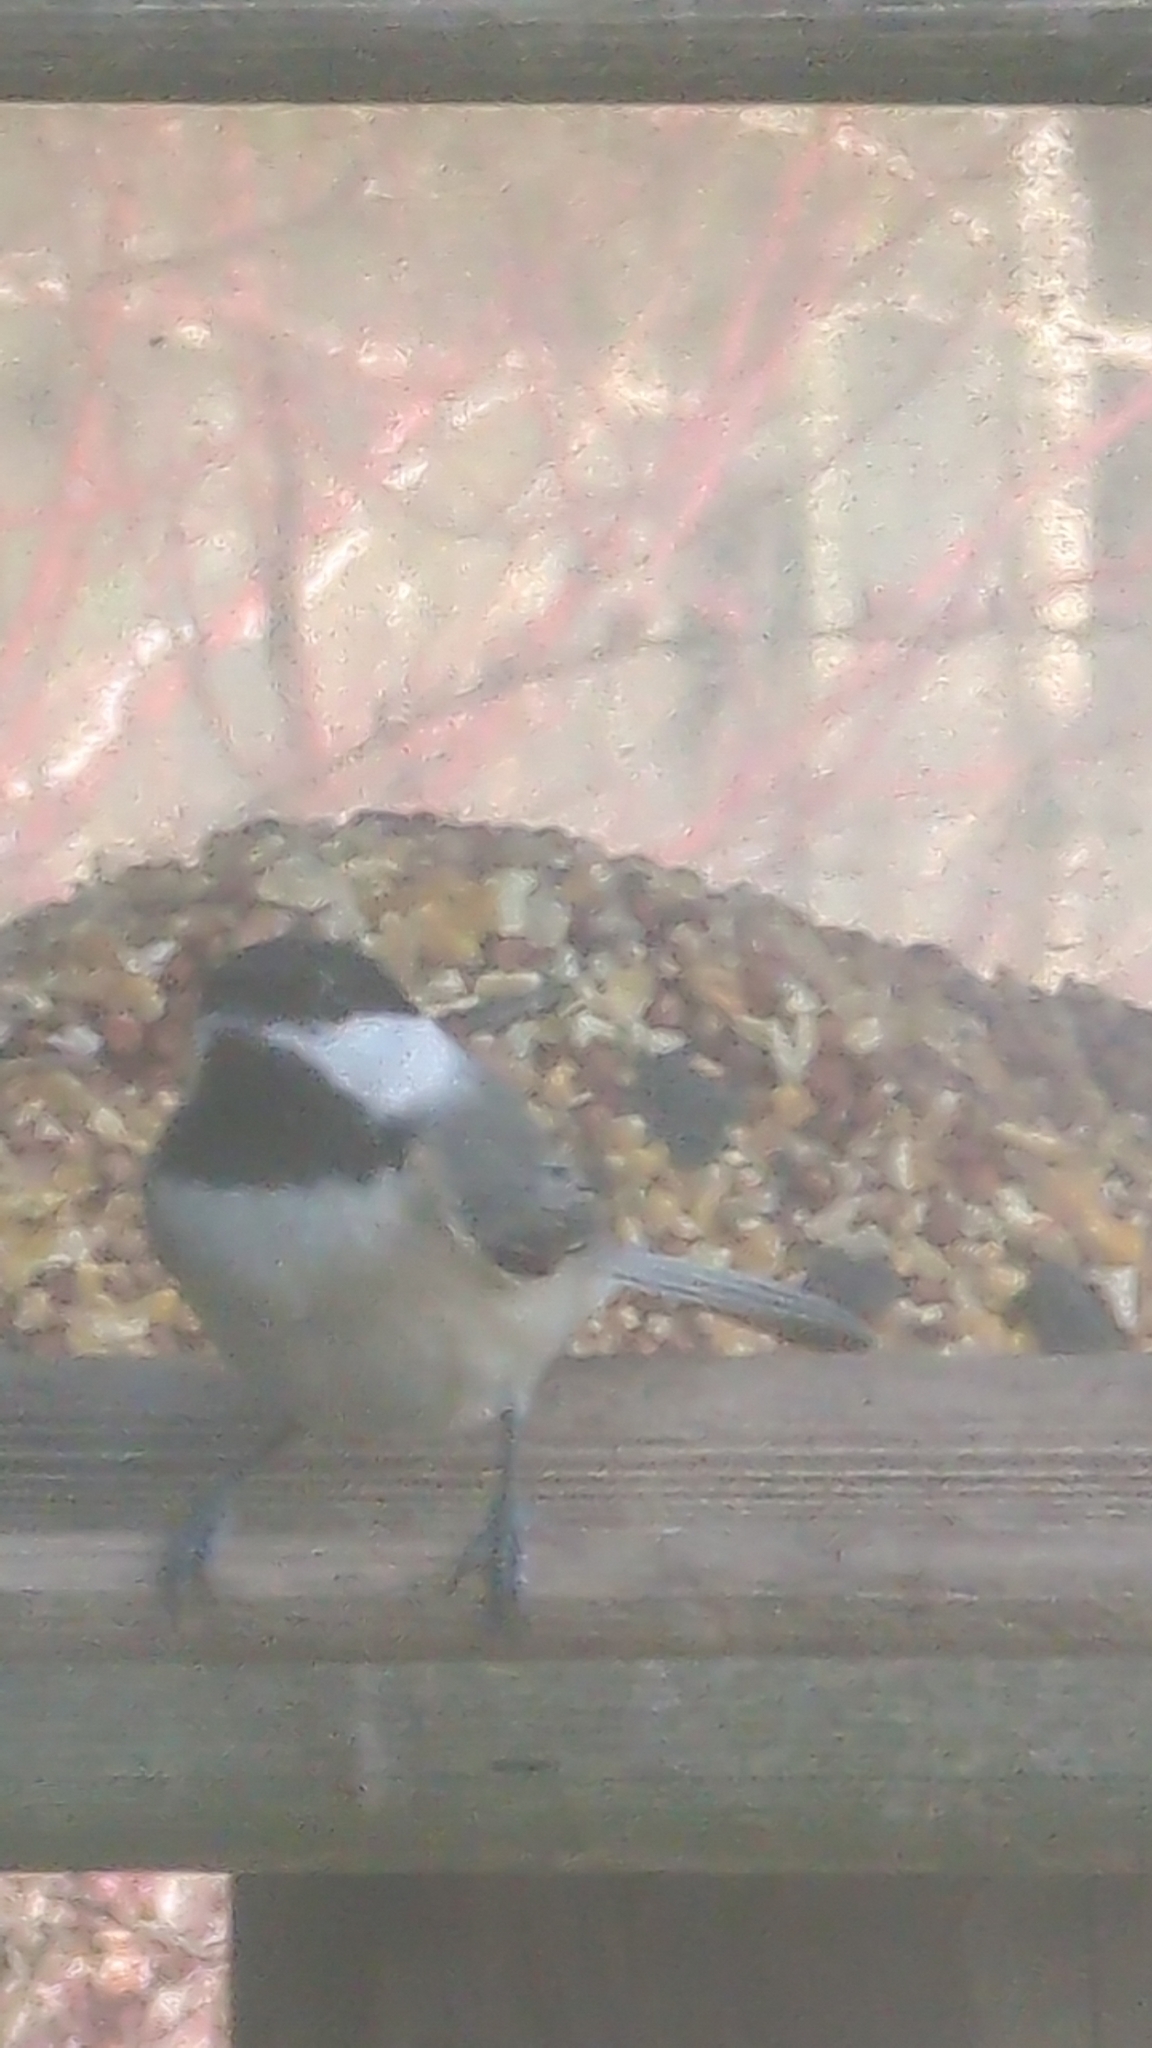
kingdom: Animalia
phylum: Chordata
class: Aves
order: Passeriformes
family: Paridae
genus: Poecile
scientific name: Poecile carolinensis
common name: Carolina chickadee
